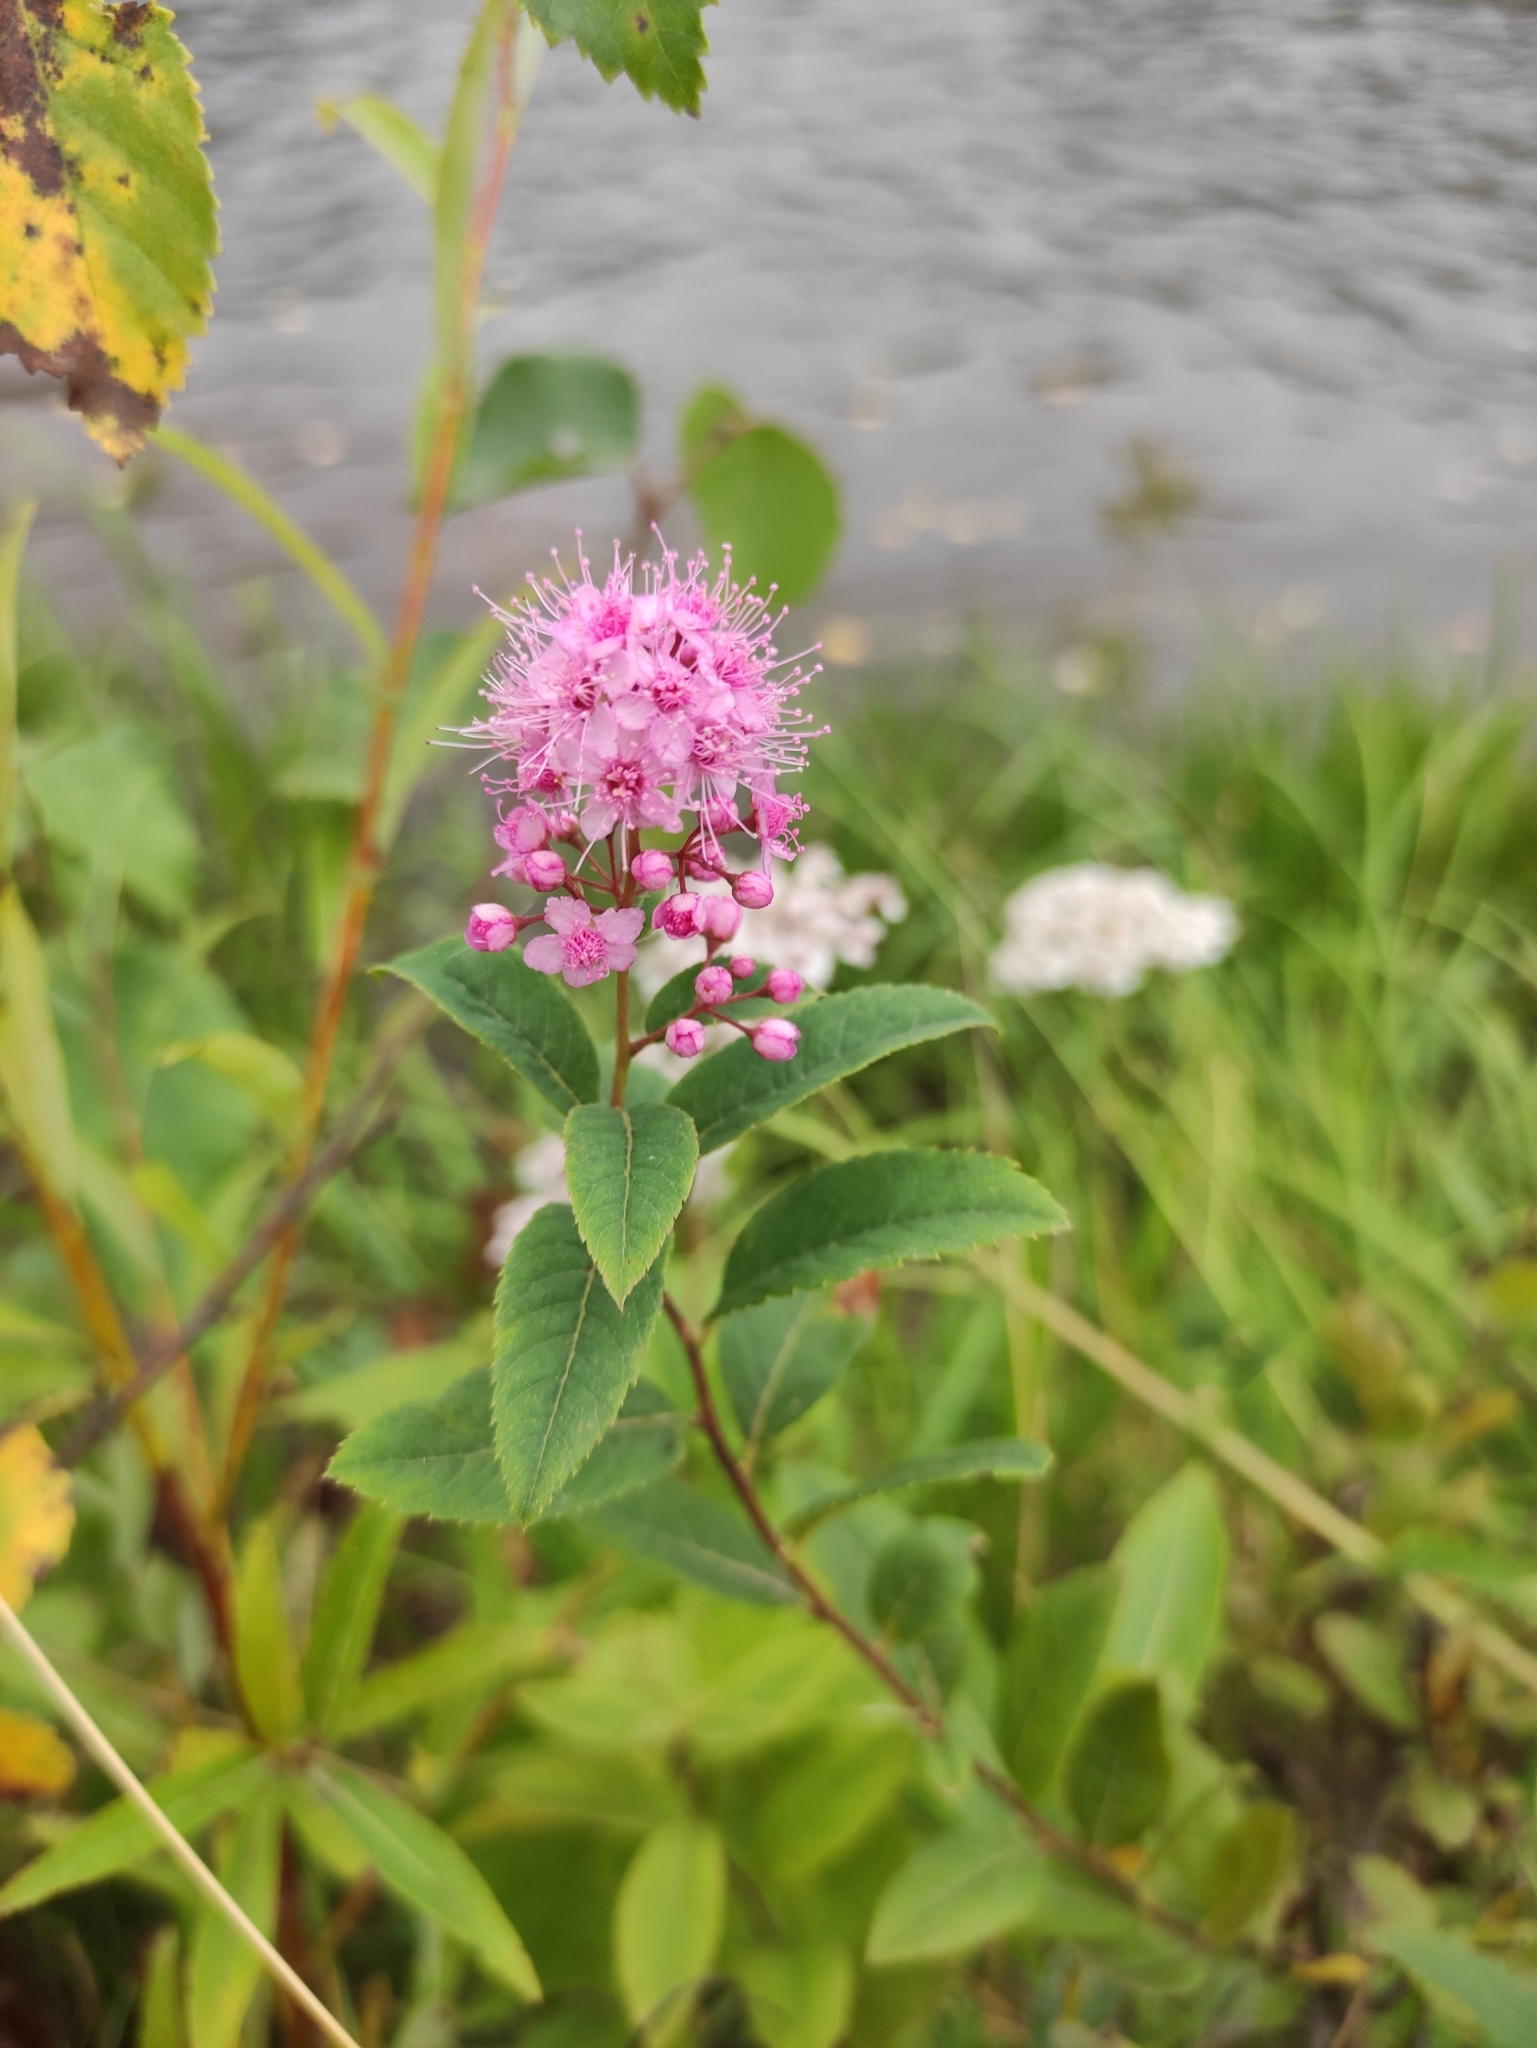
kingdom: Plantae
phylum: Tracheophyta
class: Magnoliopsida
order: Rosales
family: Rosaceae
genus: Spiraea
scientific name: Spiraea salicifolia
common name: Bridewort
